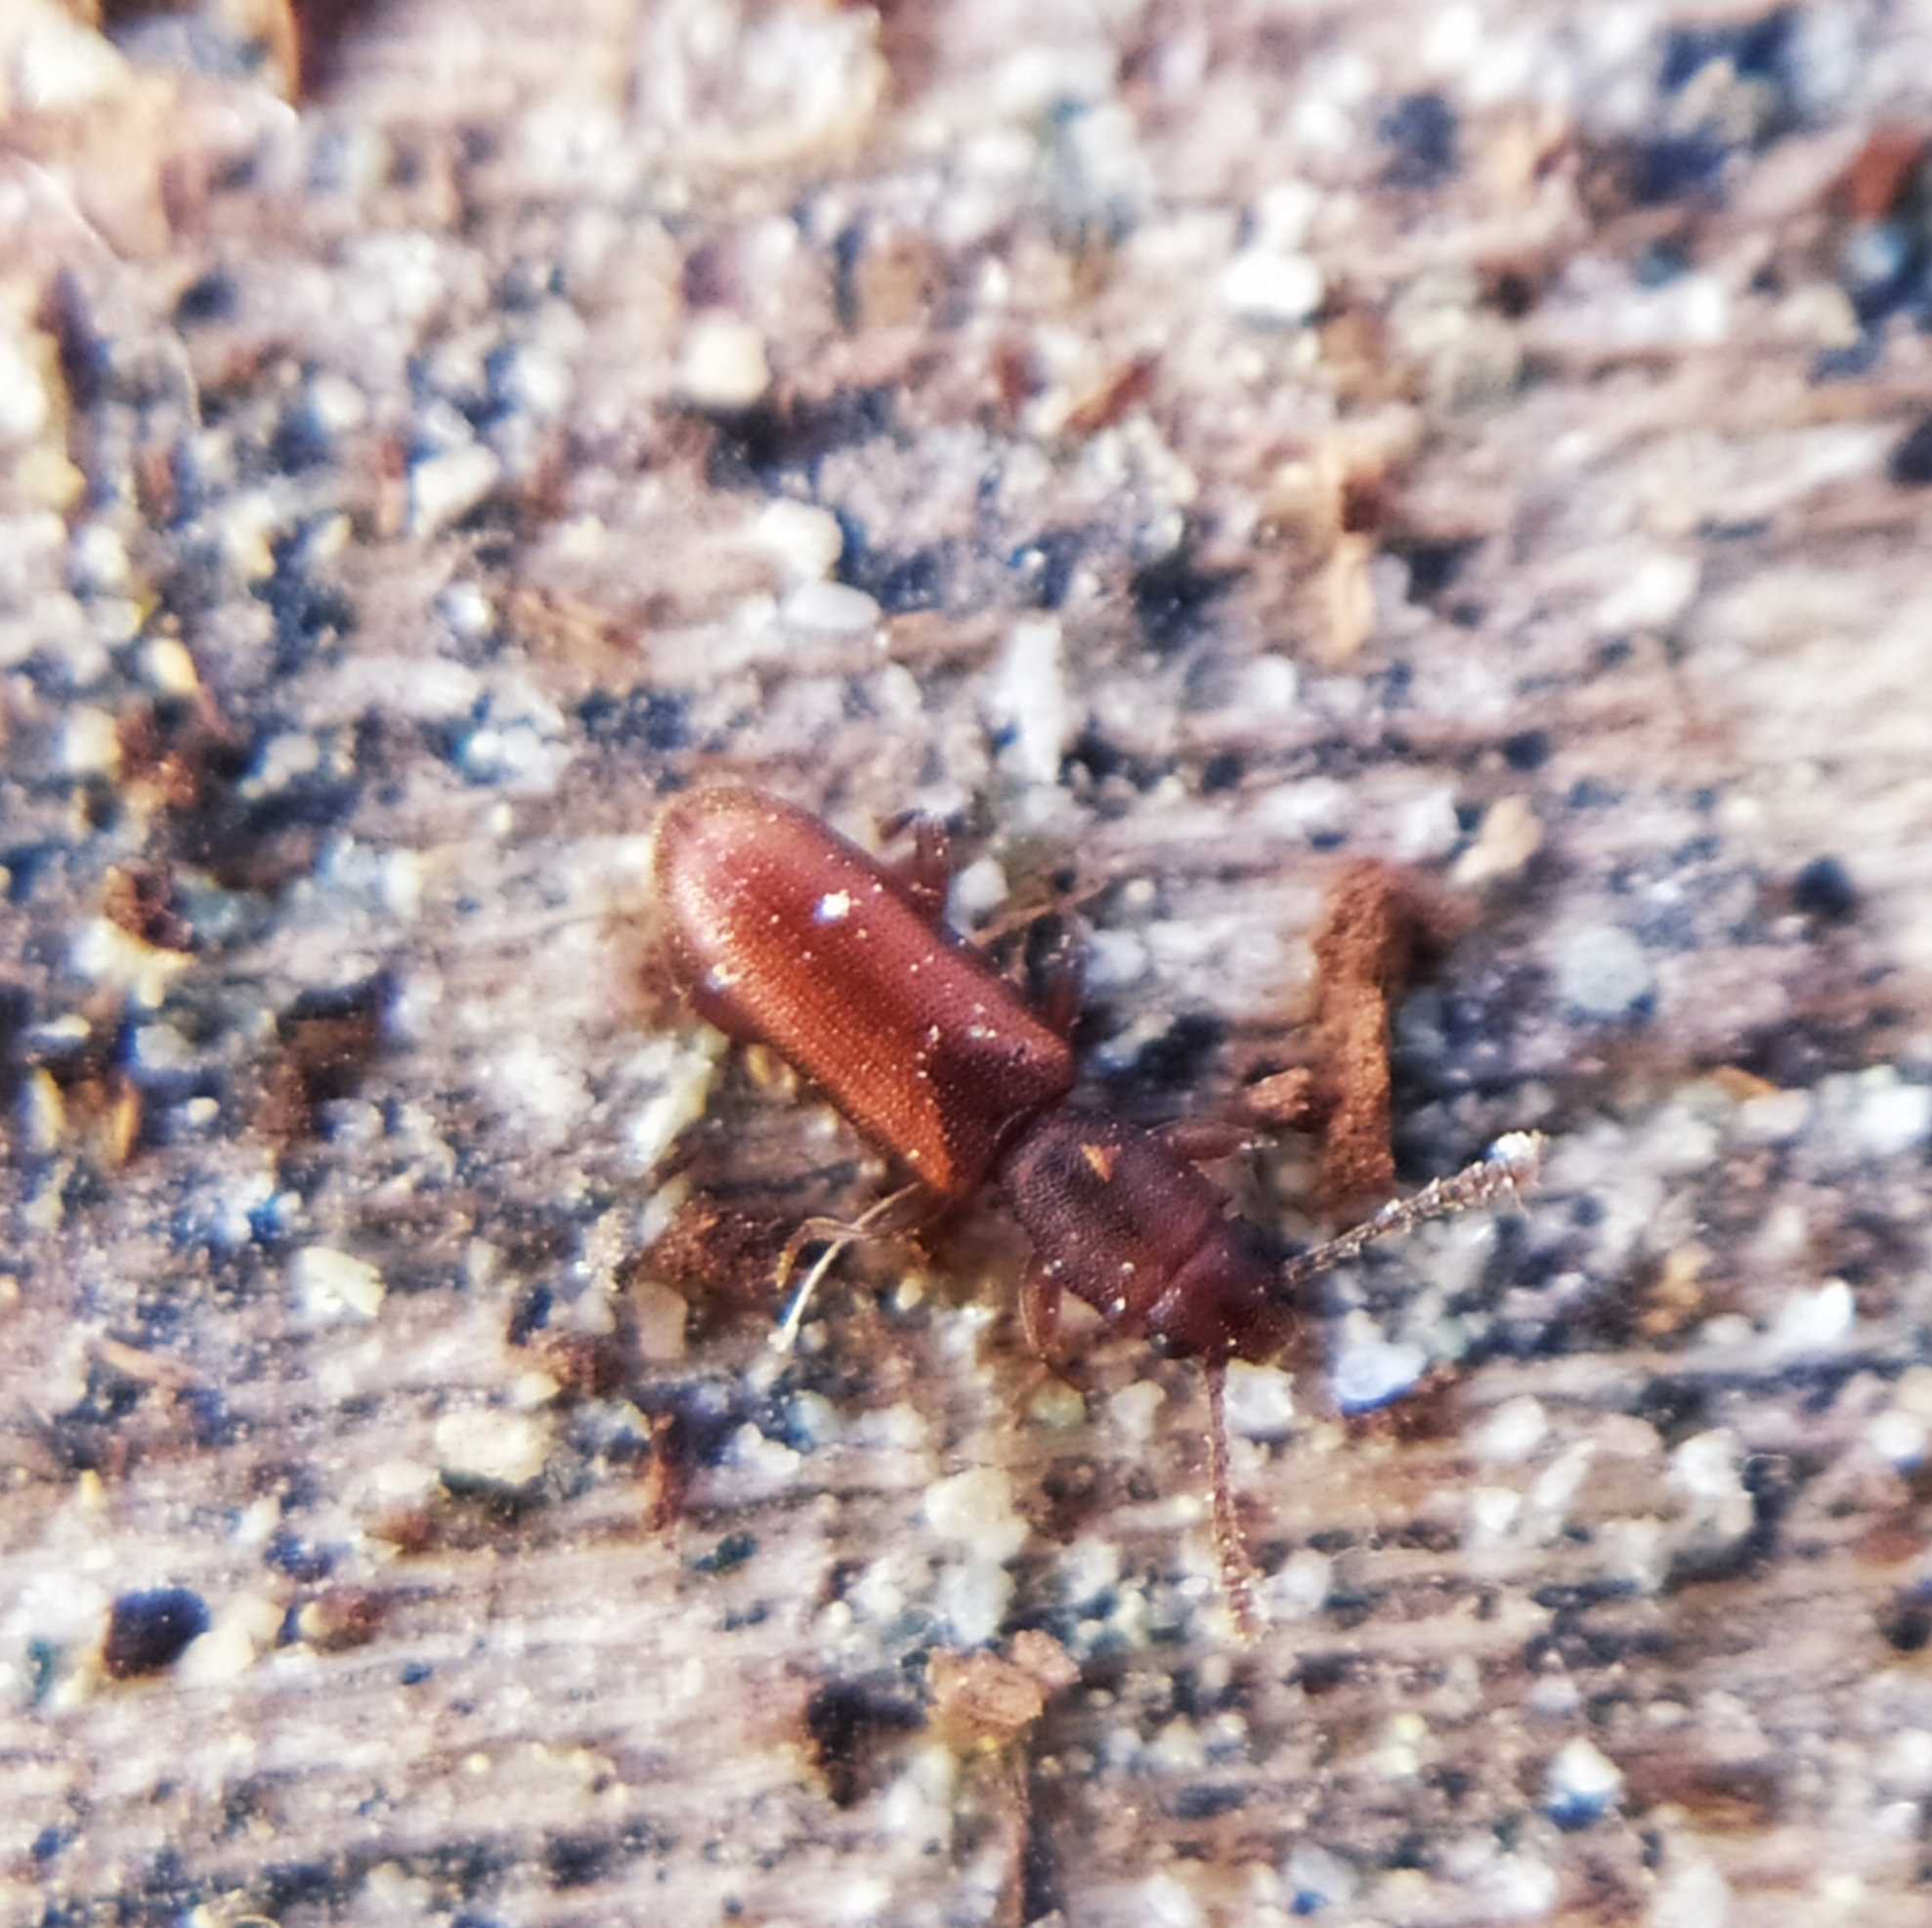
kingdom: Animalia
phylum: Arthropoda
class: Insecta
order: Coleoptera
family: Silvanidae
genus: Silvanus
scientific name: Silvanus unidentatus
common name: One-toothed silvan flat bark beetle
